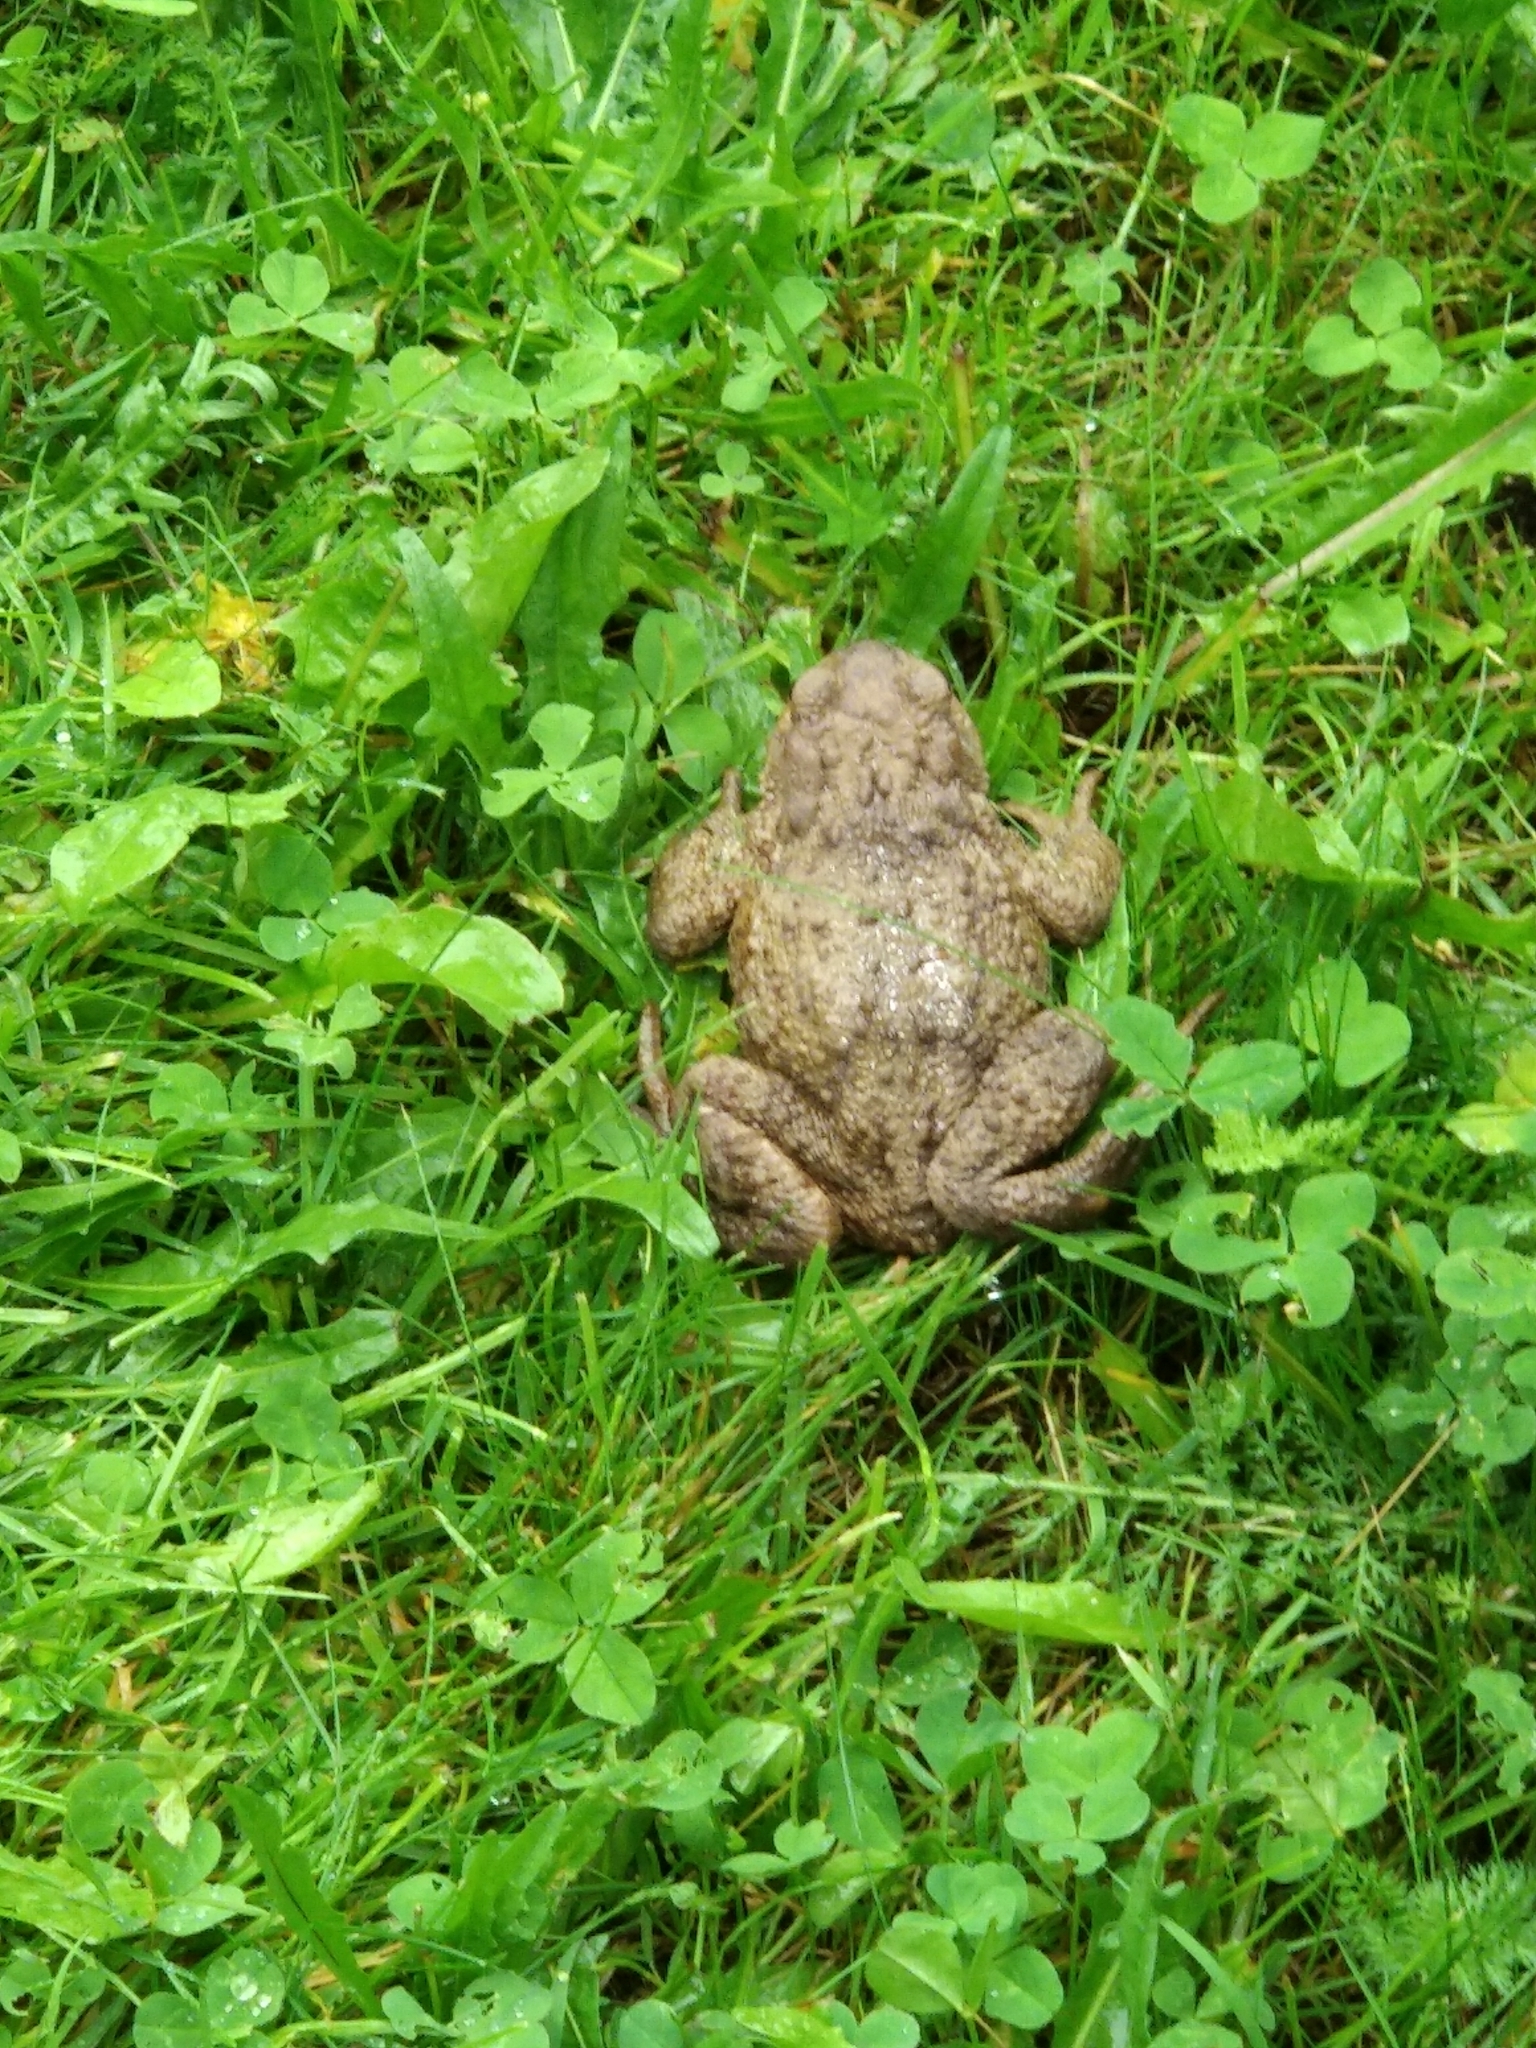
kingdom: Animalia
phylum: Chordata
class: Amphibia
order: Anura
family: Bufonidae
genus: Bufo
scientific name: Bufo bufo
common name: Common toad
